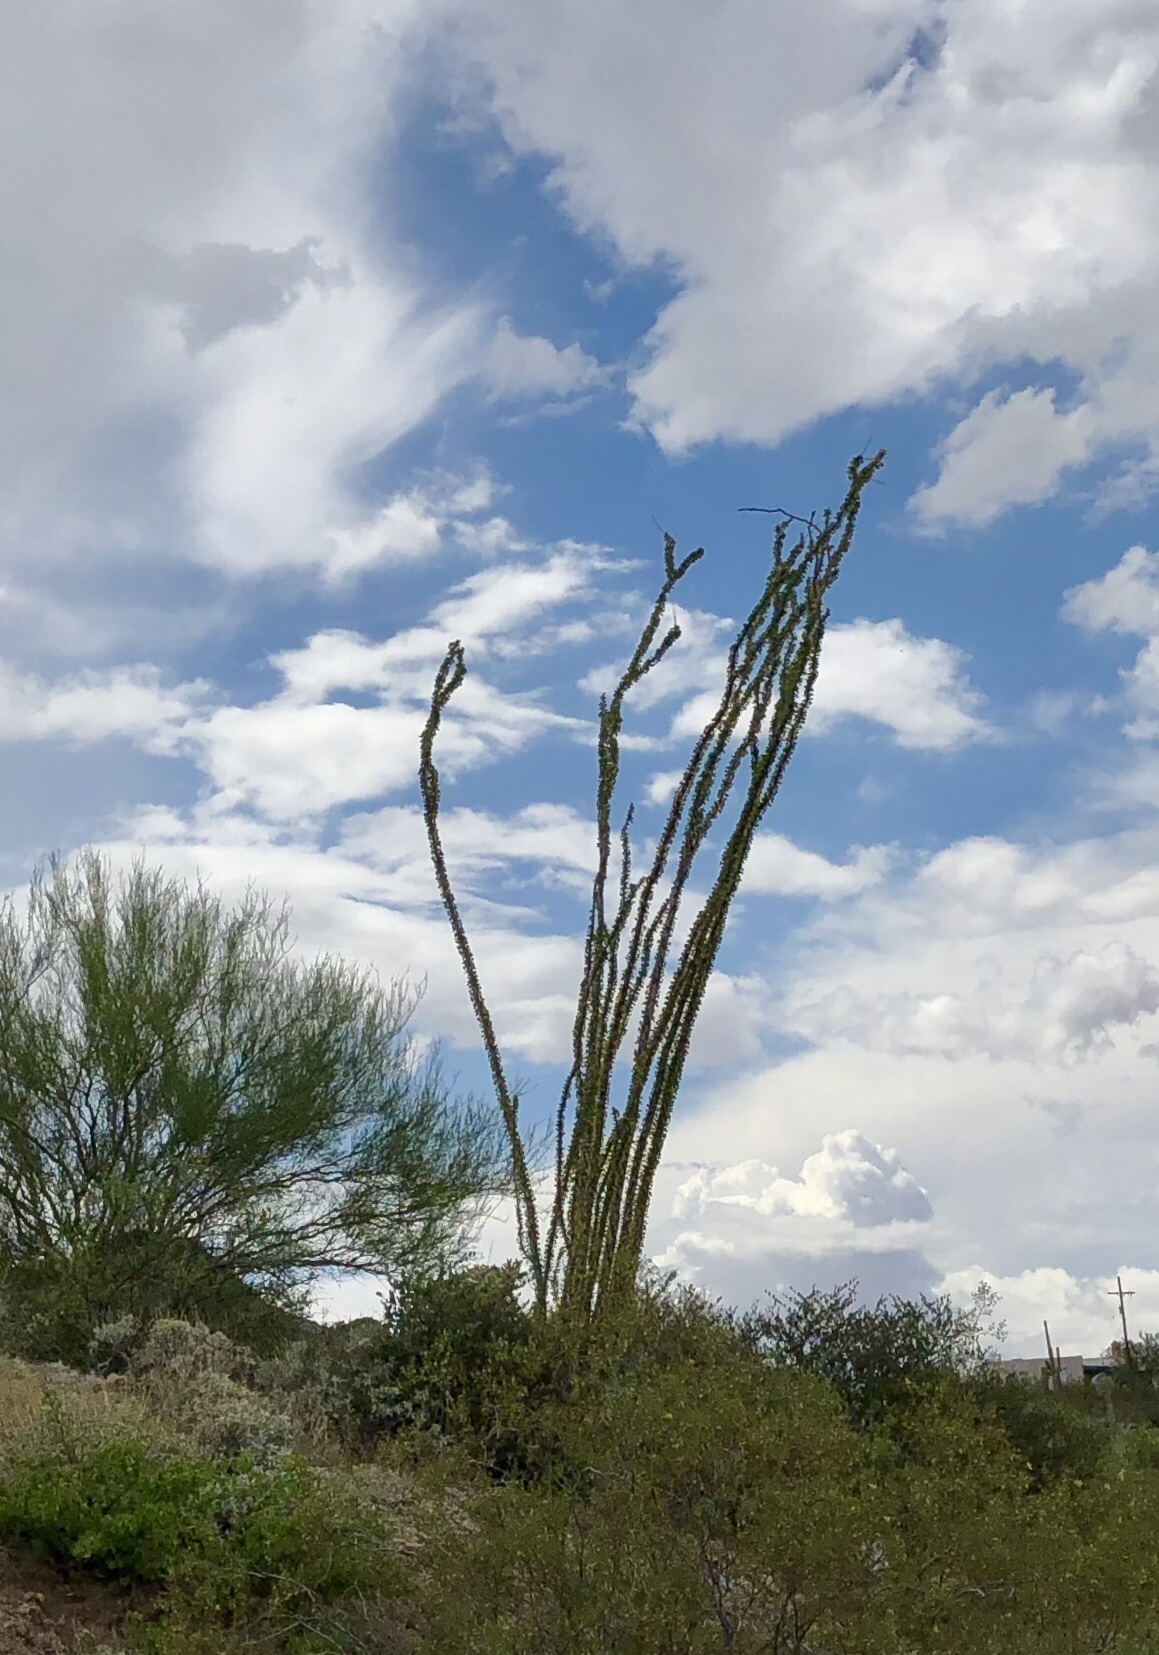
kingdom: Plantae
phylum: Tracheophyta
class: Magnoliopsida
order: Ericales
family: Fouquieriaceae
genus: Fouquieria
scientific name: Fouquieria splendens
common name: Vine-cactus
